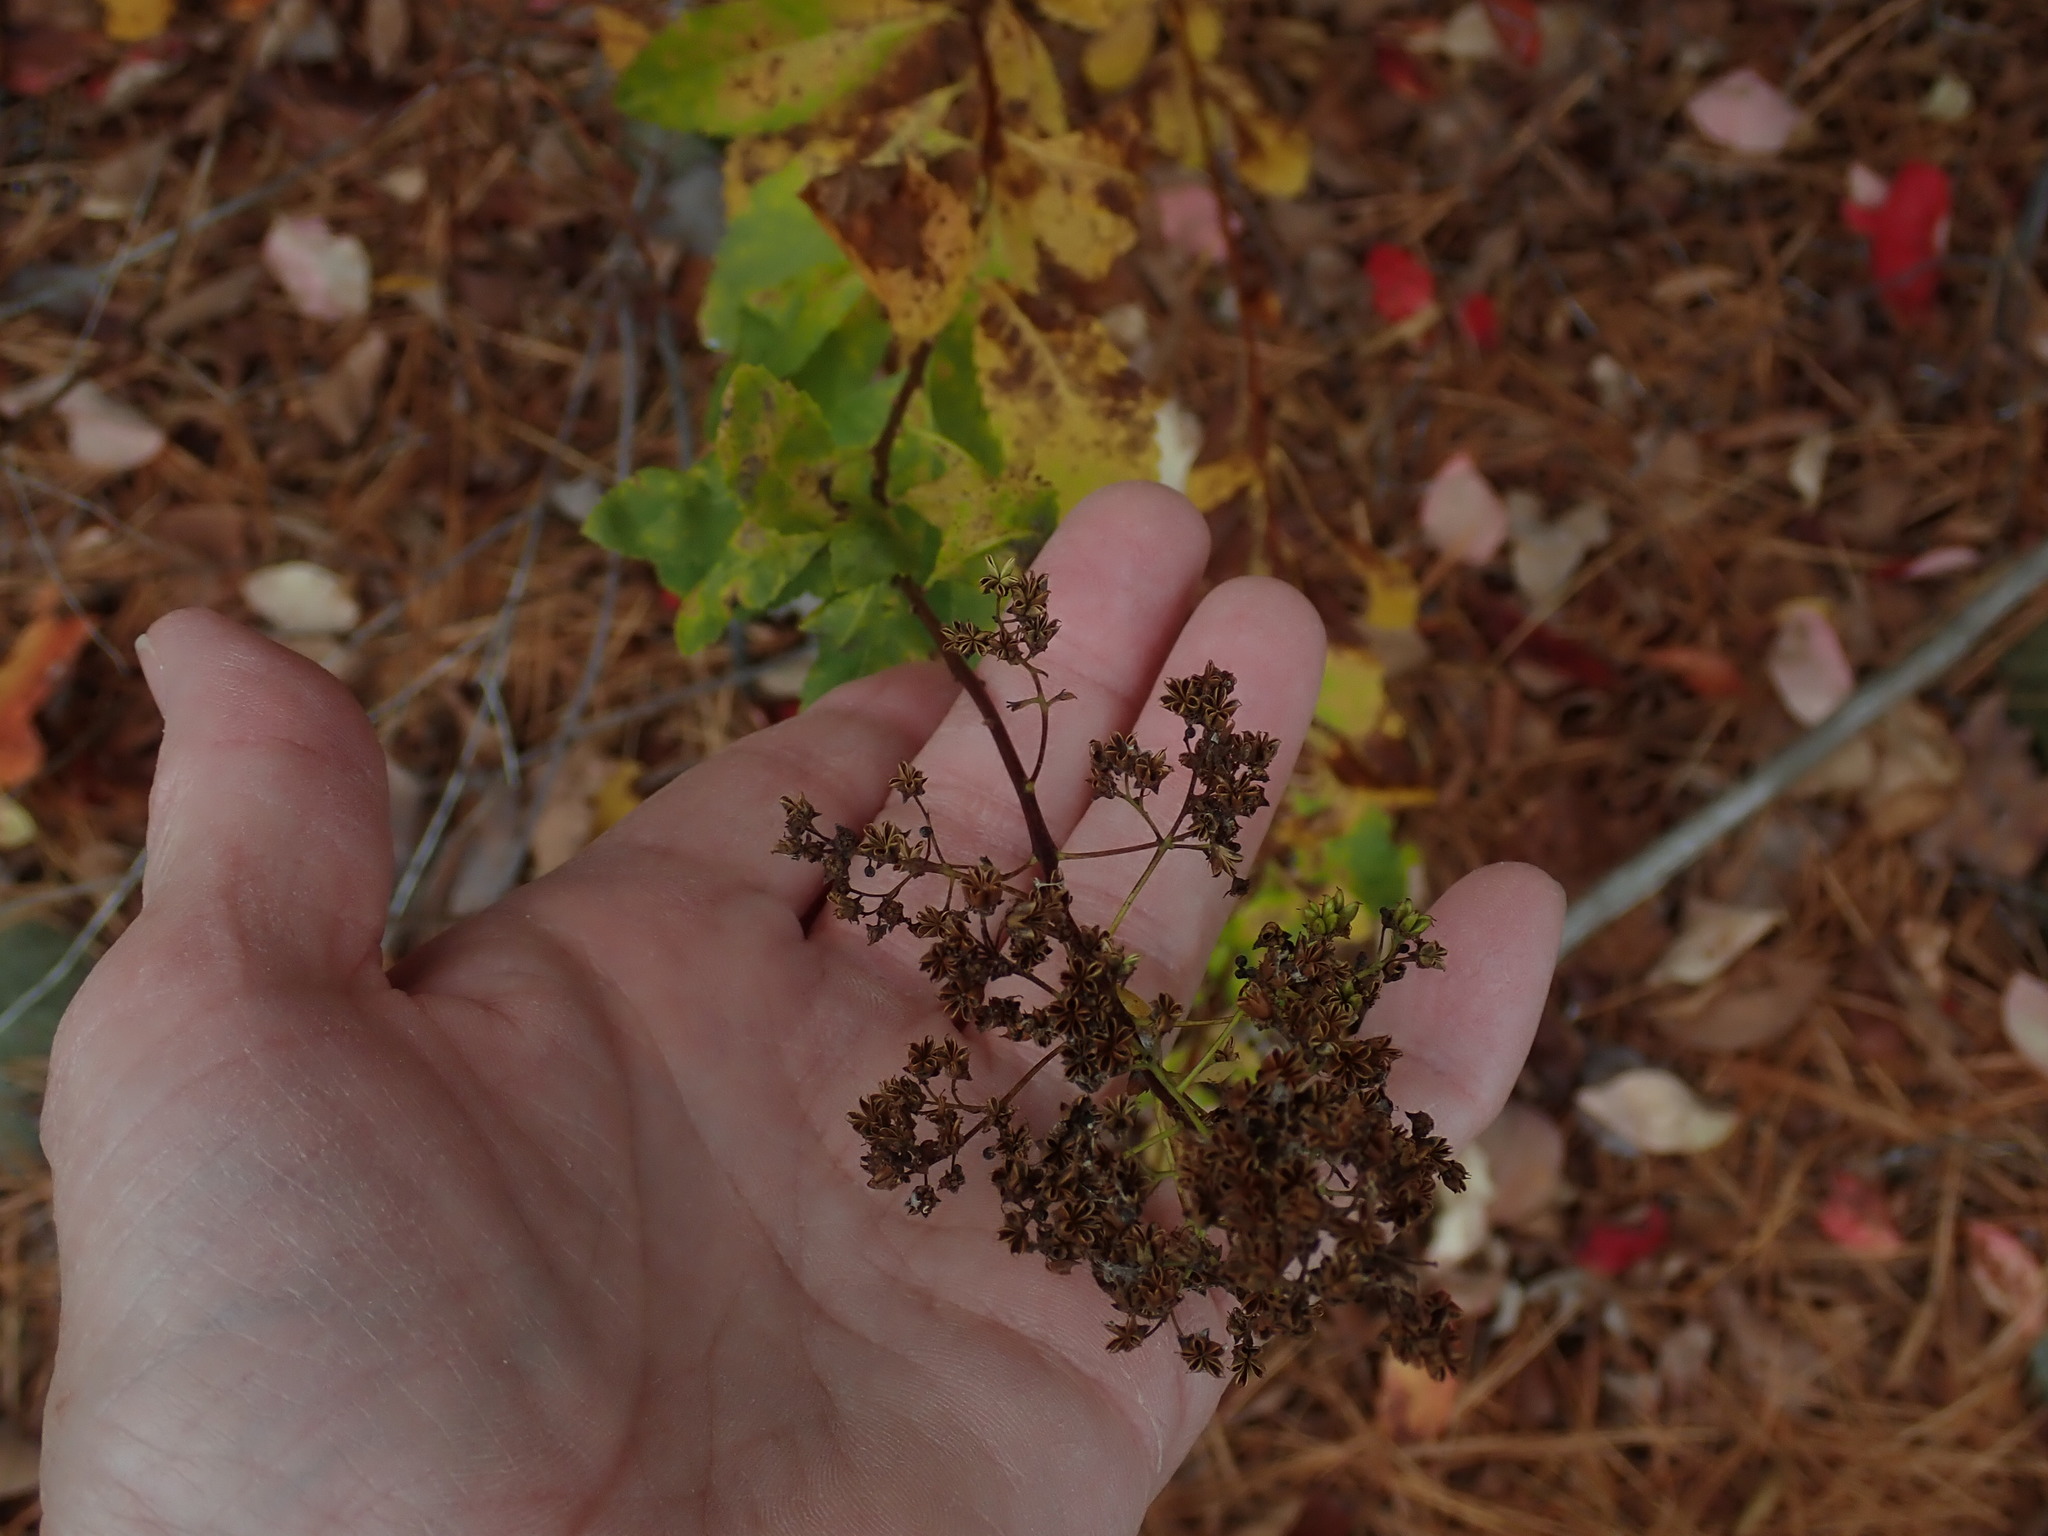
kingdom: Plantae
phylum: Tracheophyta
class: Magnoliopsida
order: Rosales
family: Rosaceae
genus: Spiraea
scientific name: Spiraea alba
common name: Pale bridewort
